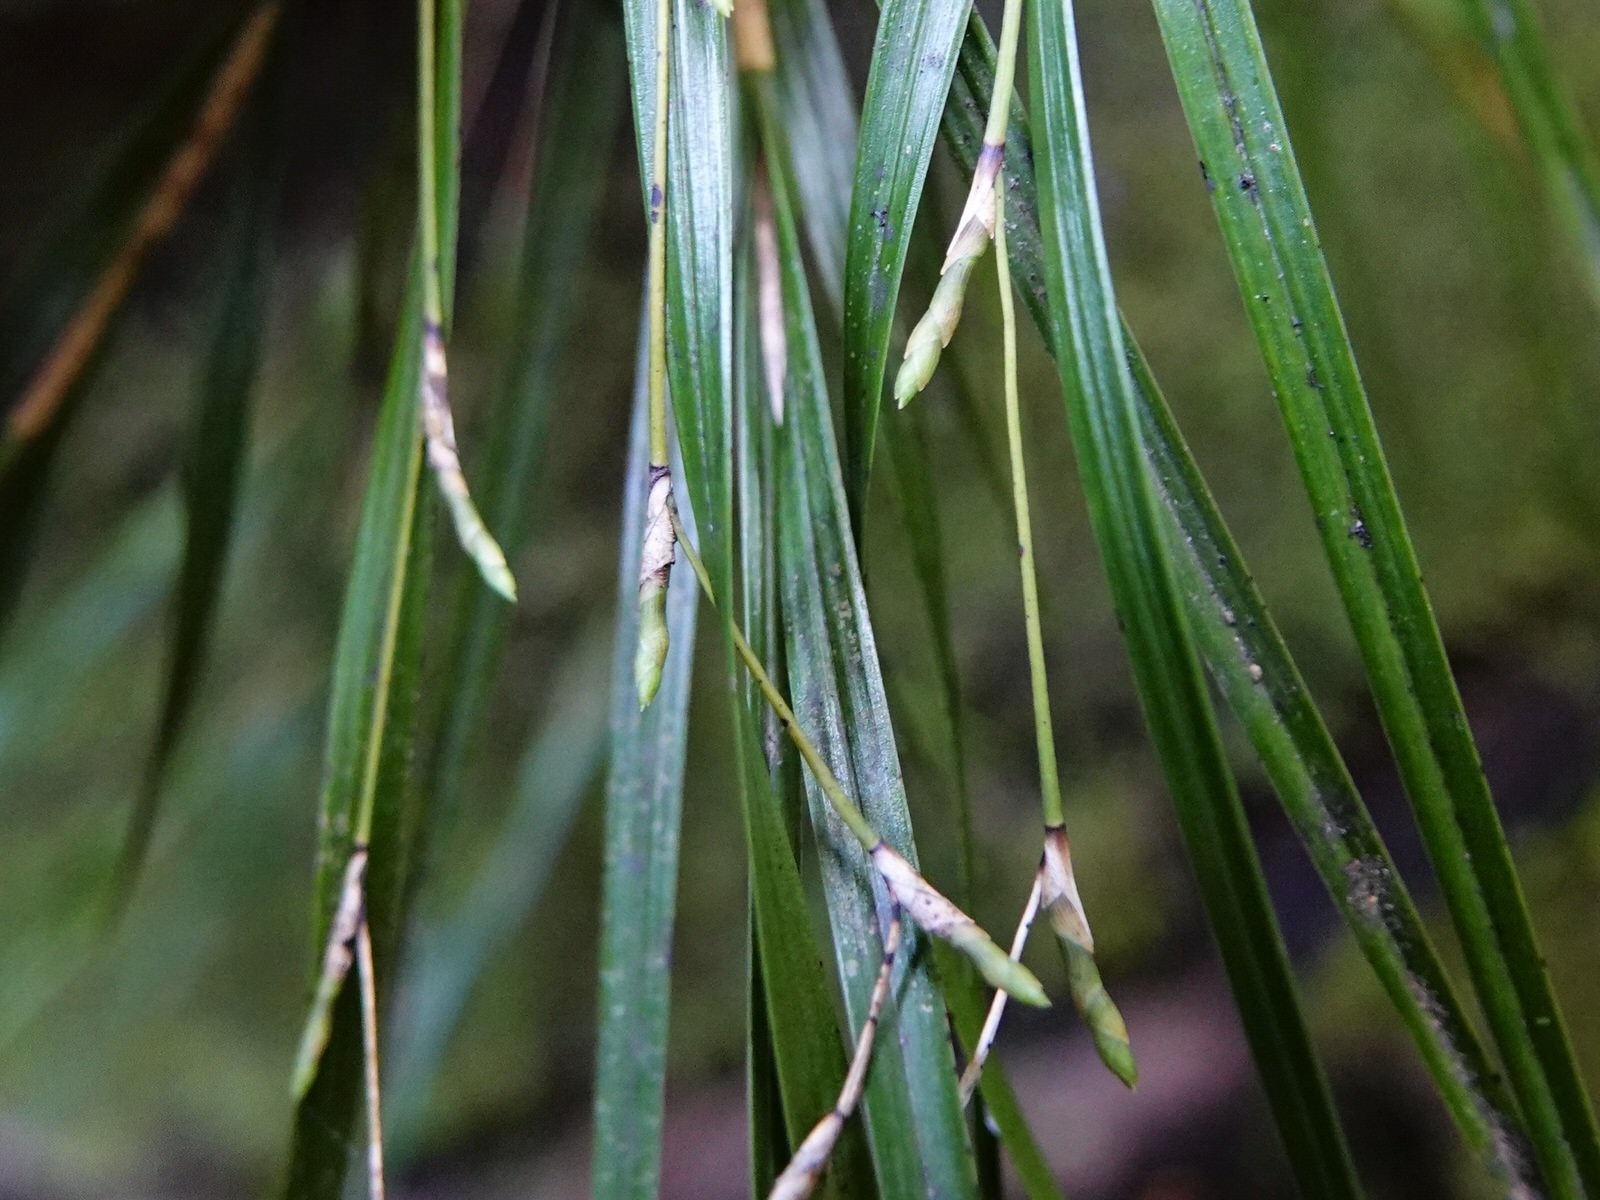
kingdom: Plantae
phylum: Tracheophyta
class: Liliopsida
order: Asparagales
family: Orchidaceae
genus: Earina
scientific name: Earina mucronata
